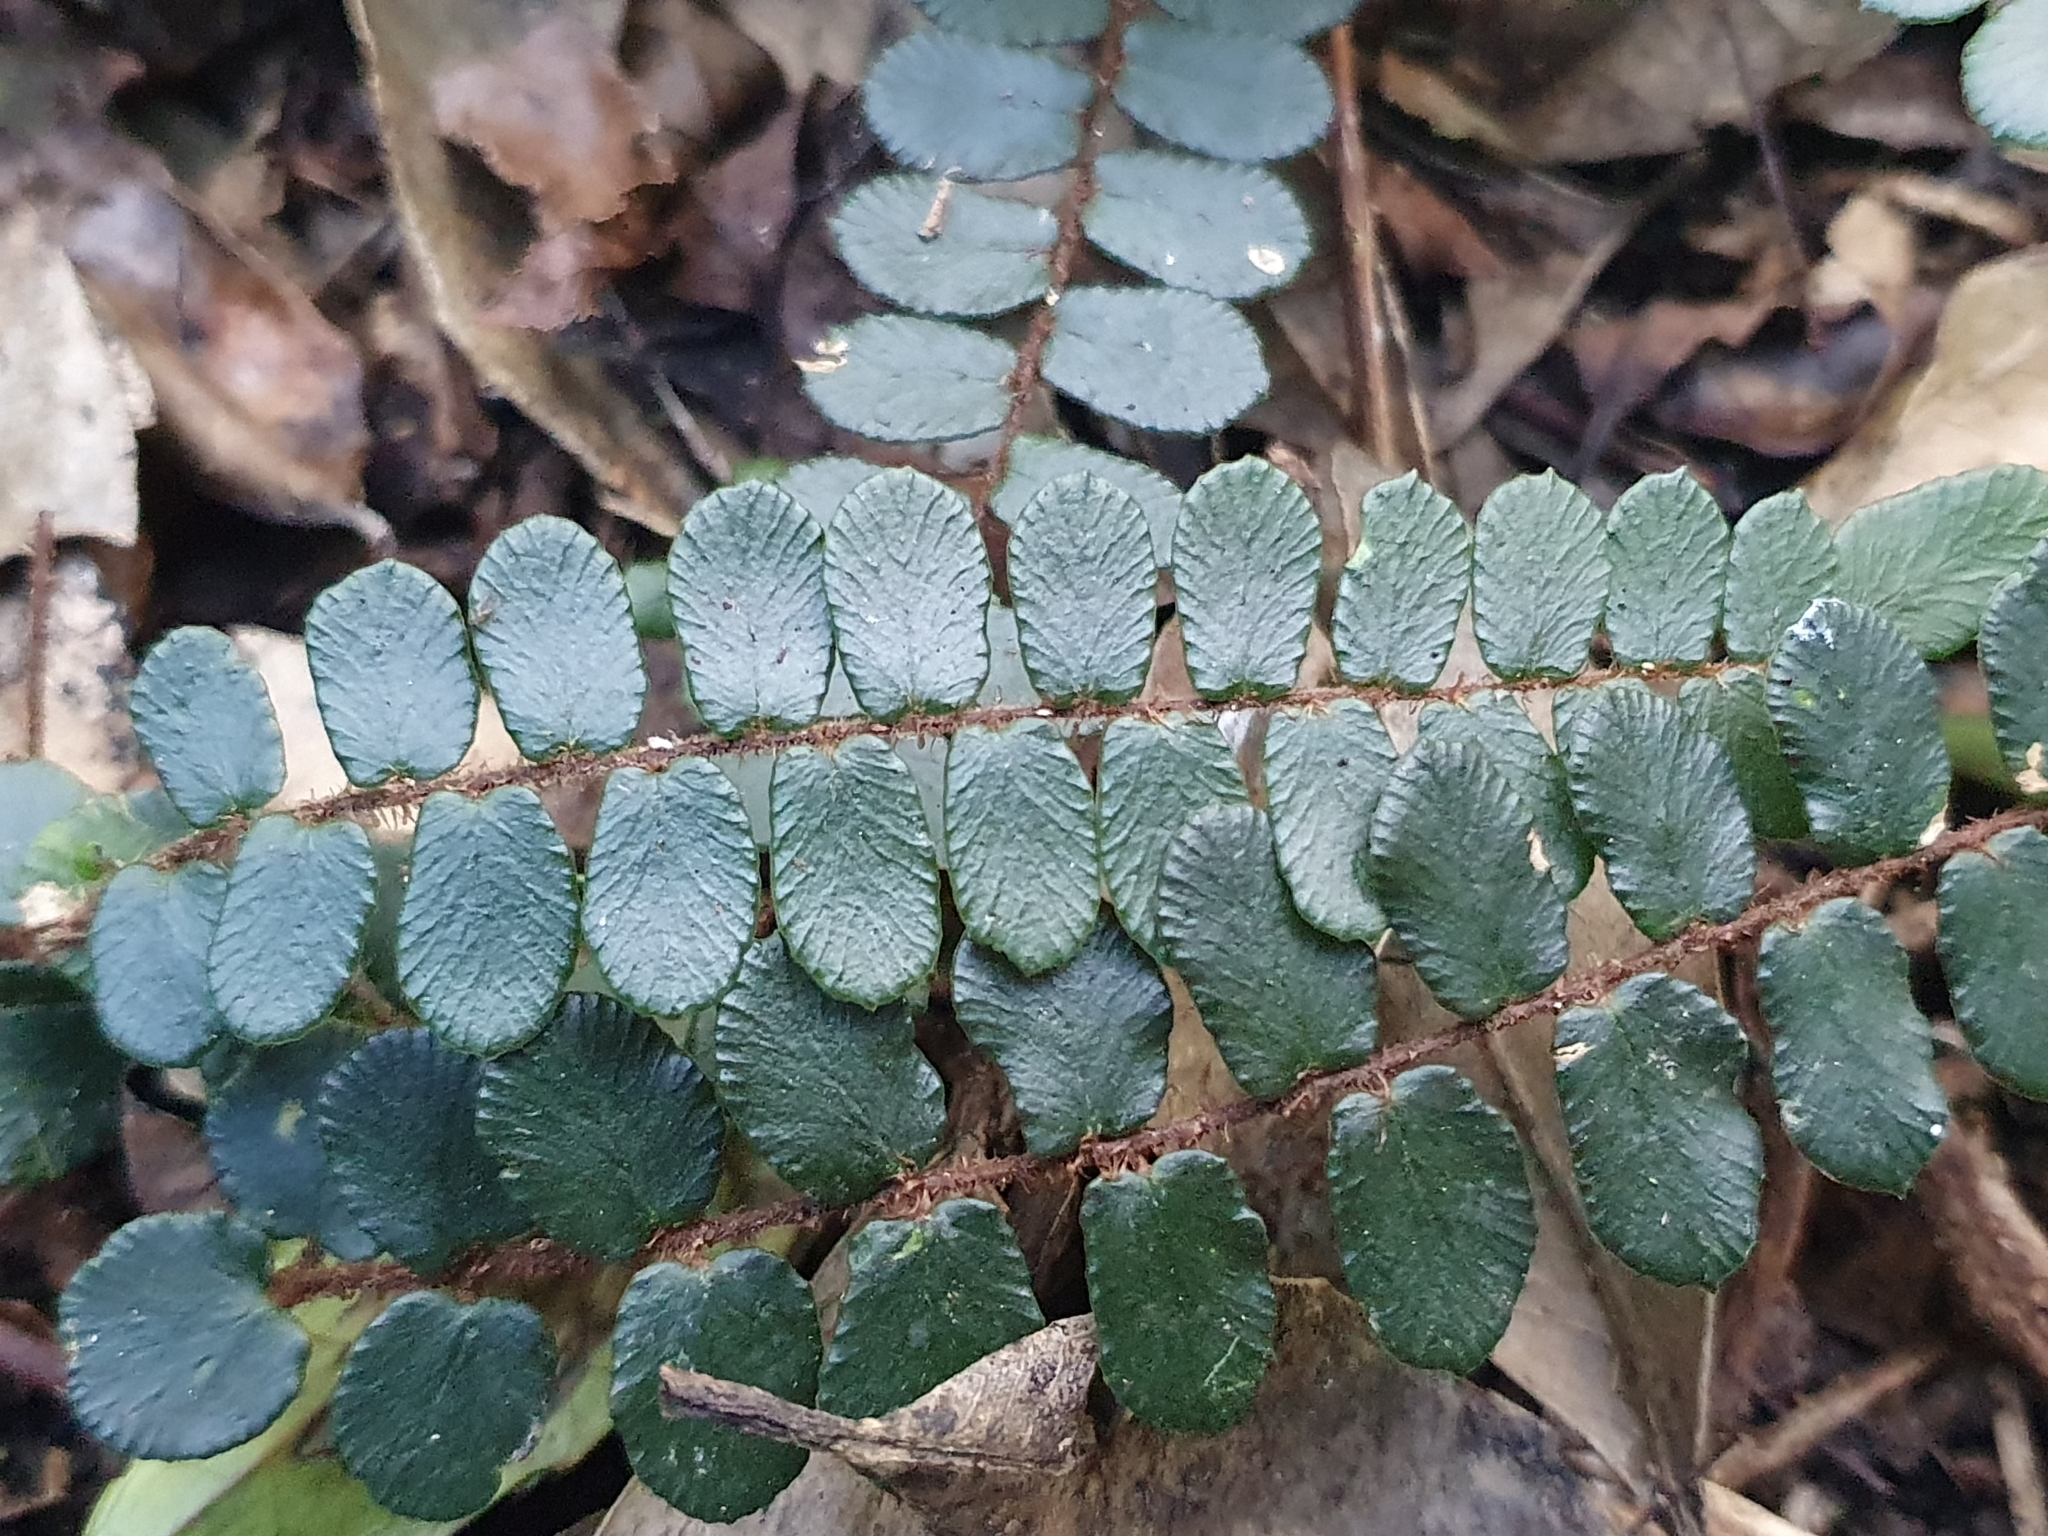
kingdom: Plantae
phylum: Tracheophyta
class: Polypodiopsida
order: Polypodiales
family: Pteridaceae
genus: Pellaea
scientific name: Pellaea rotundifolia
